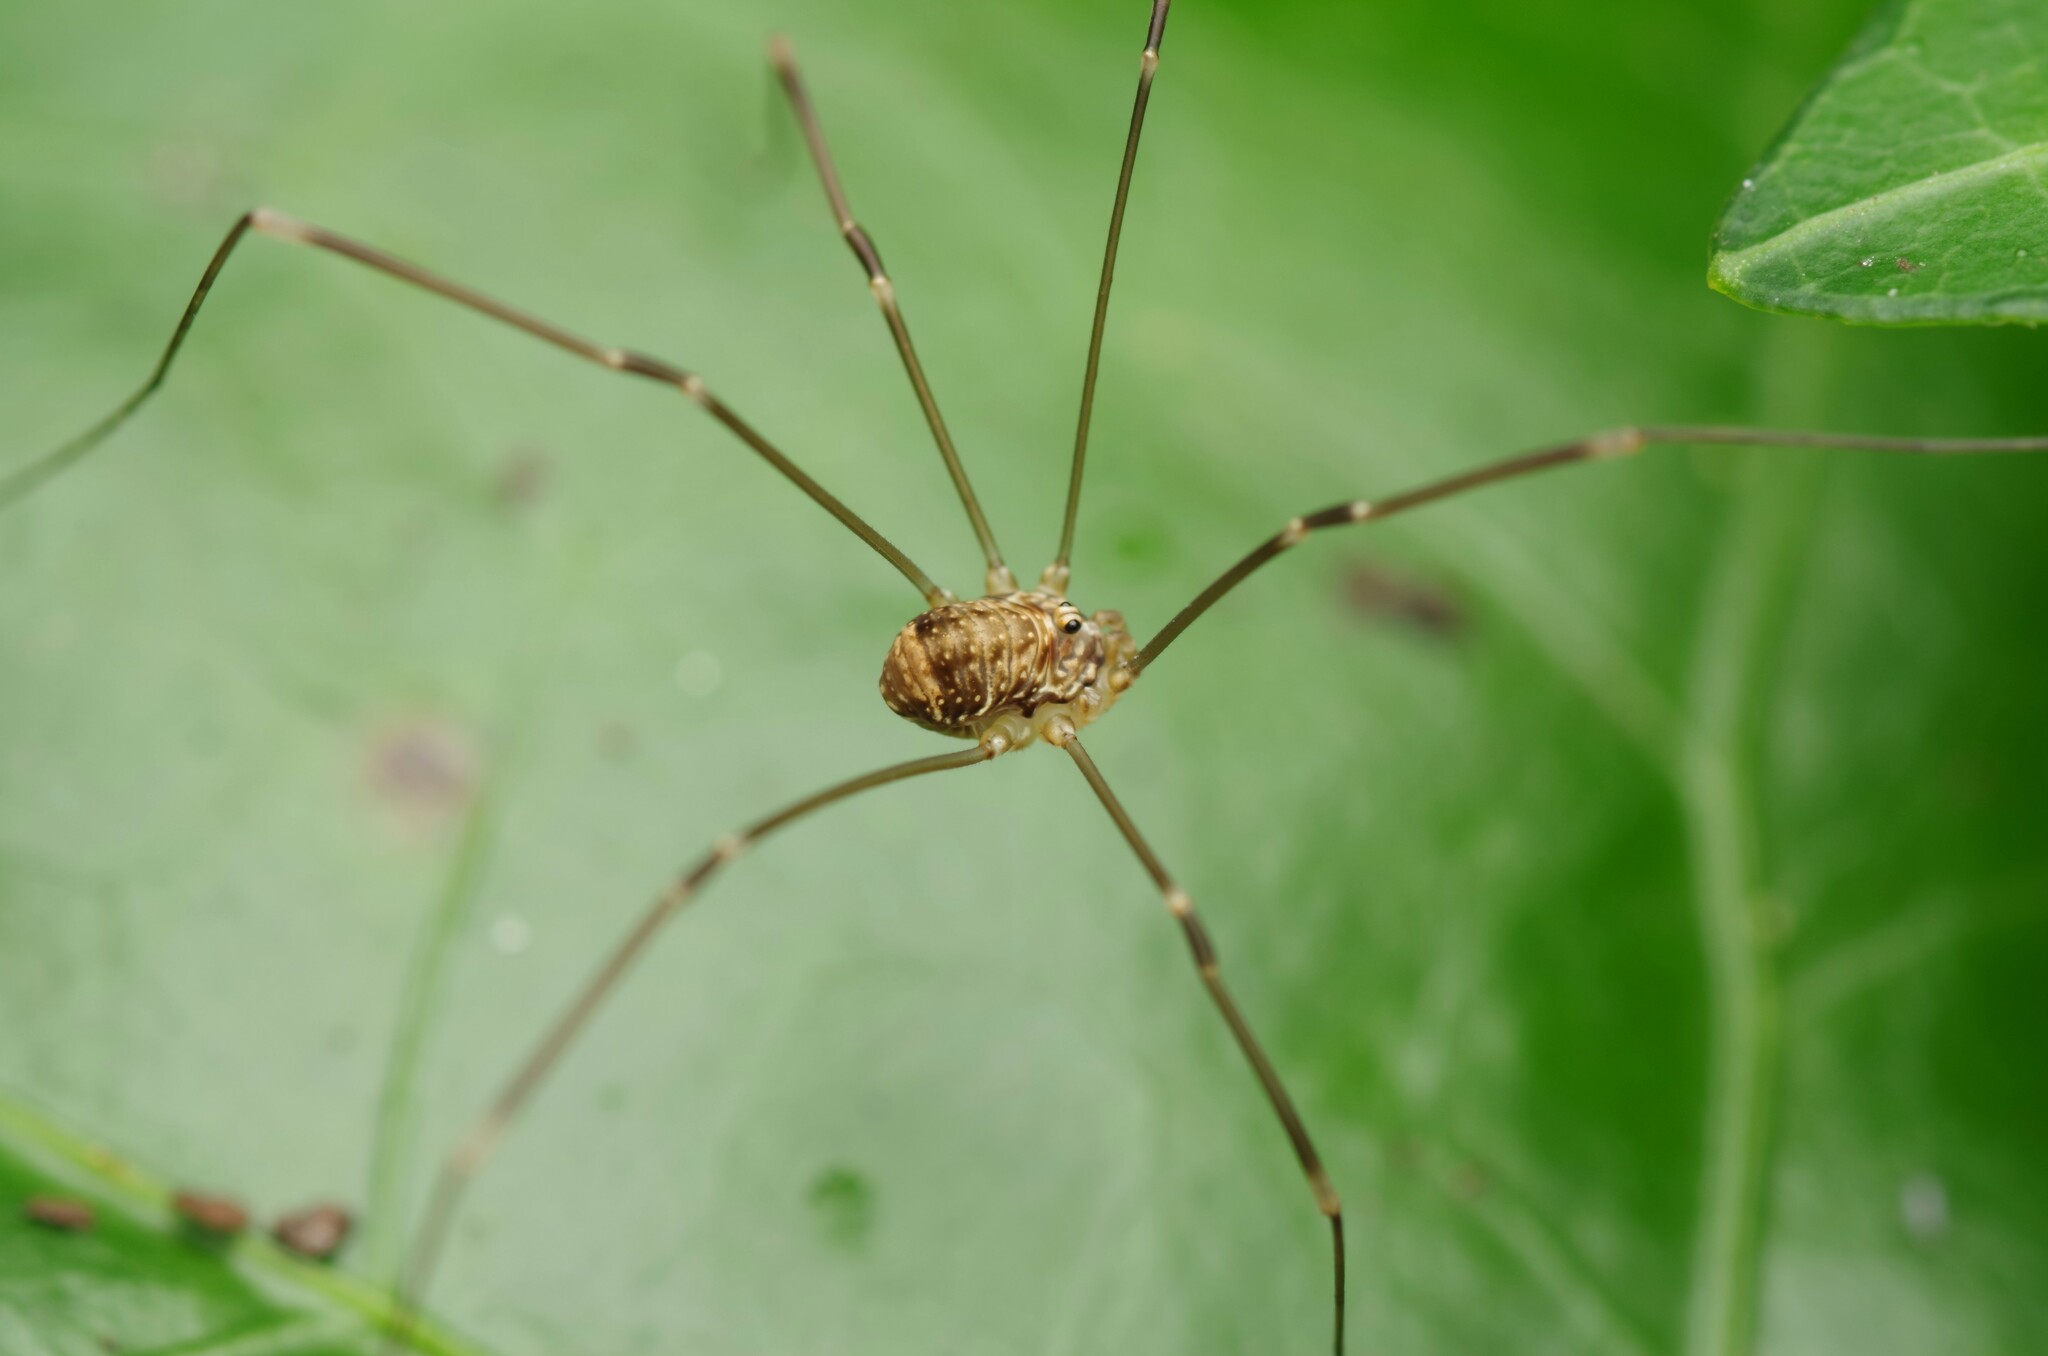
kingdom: Animalia
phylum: Arthropoda
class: Arachnida
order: Opiliones
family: Sclerosomatidae
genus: Leiobunum
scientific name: Leiobunum blackwalli
